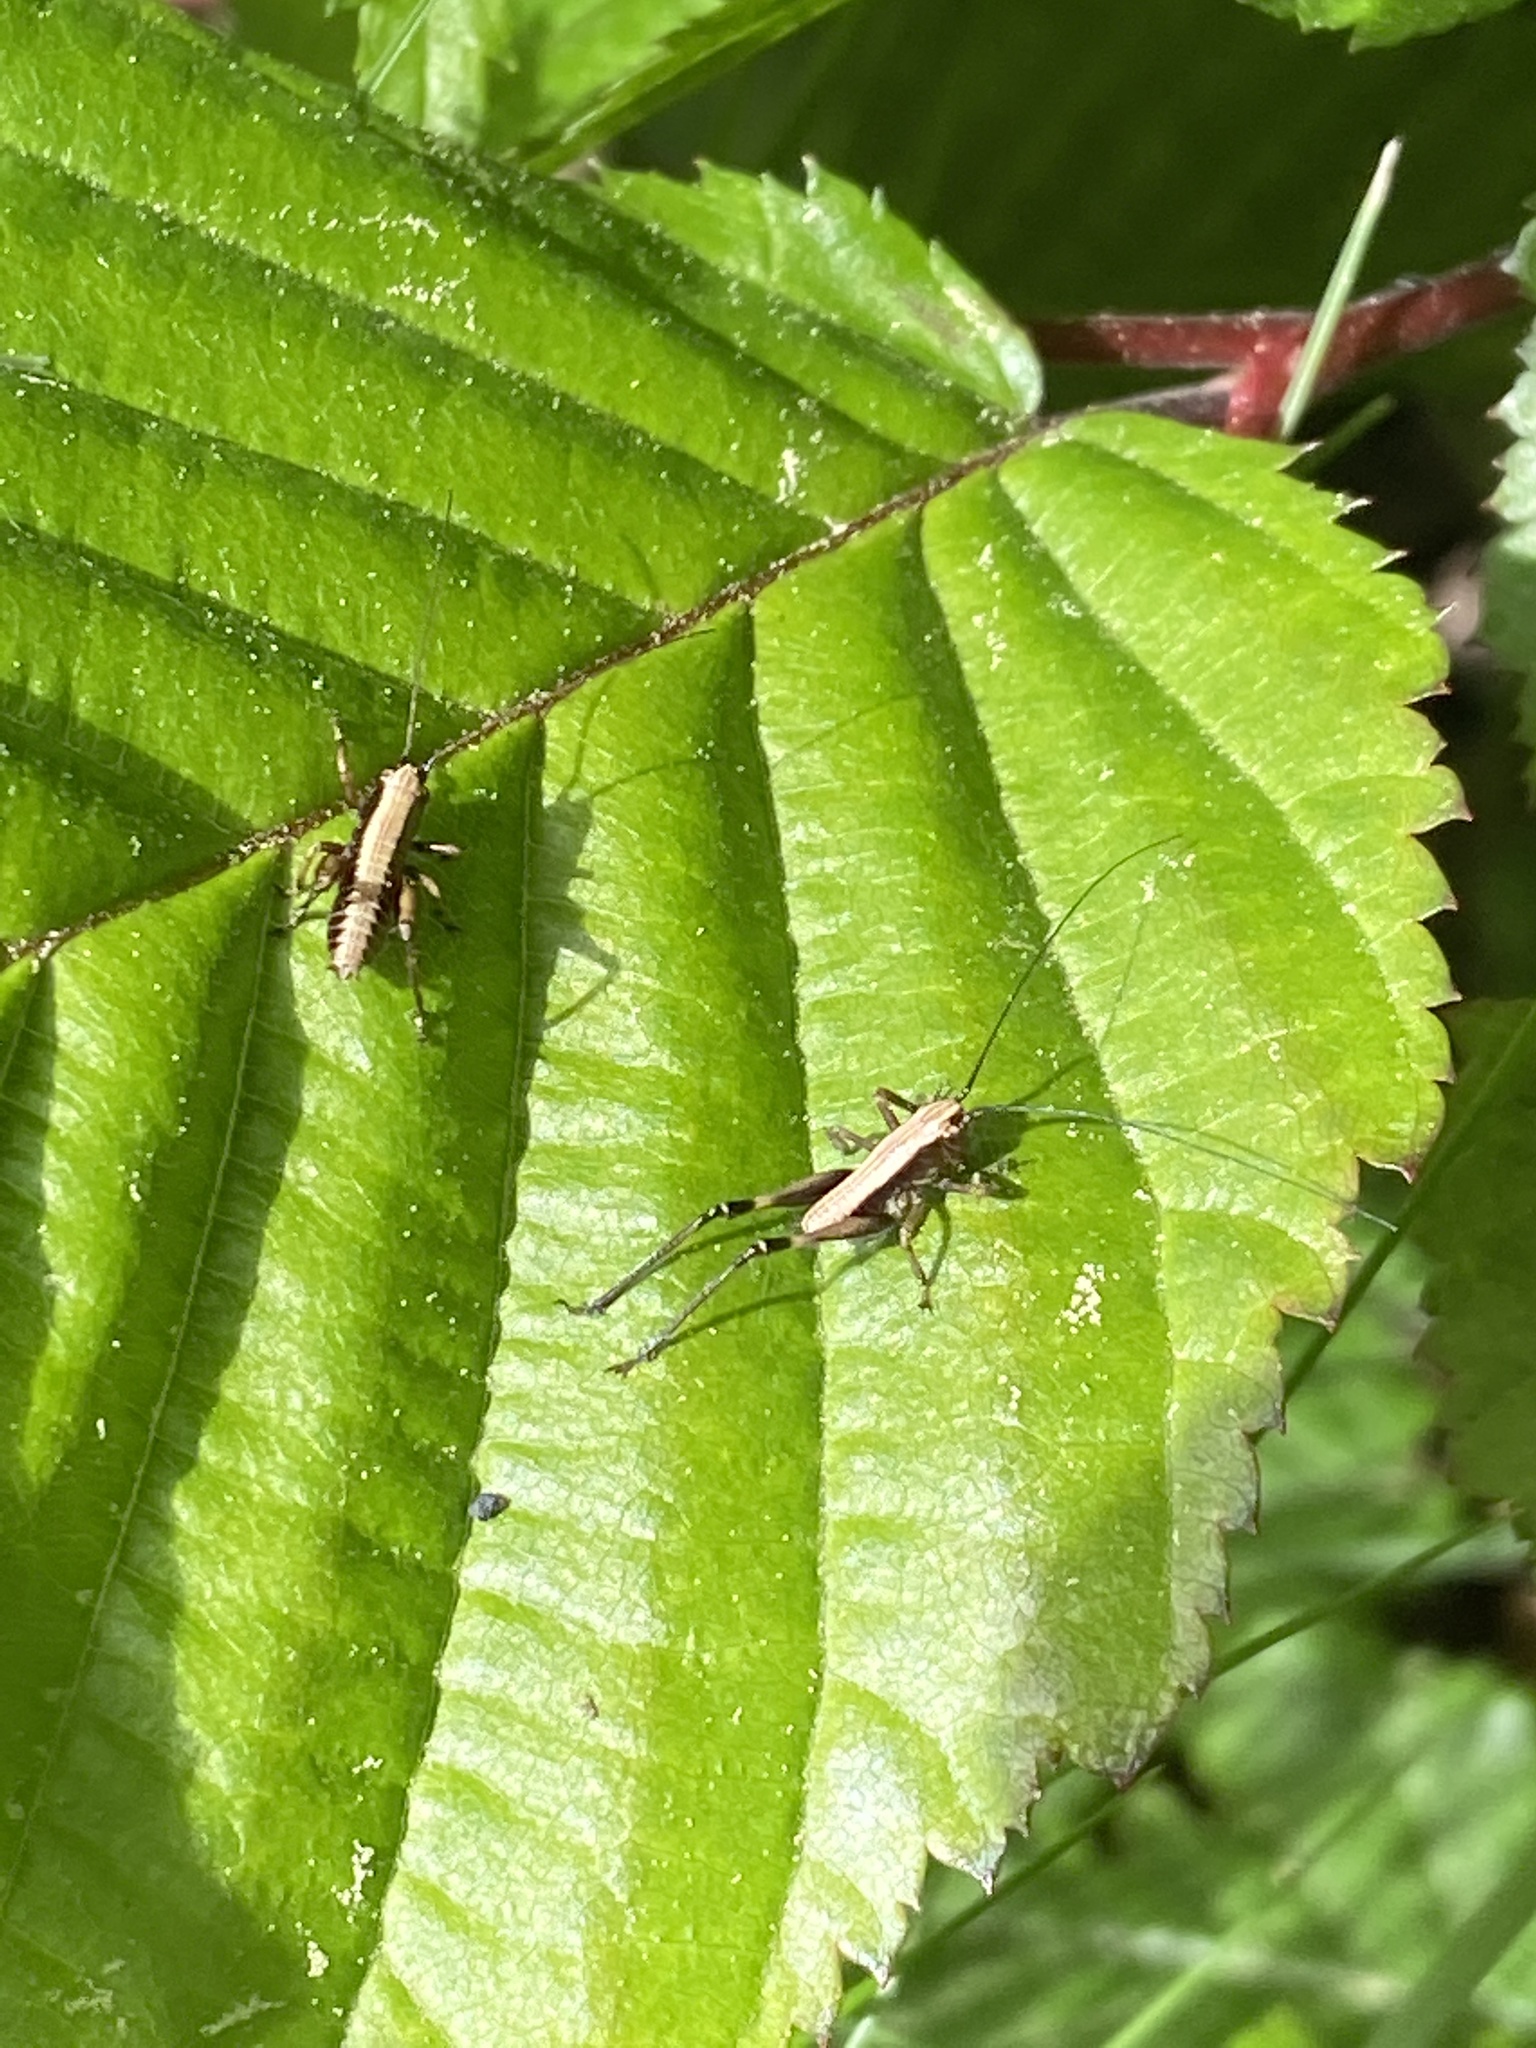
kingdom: Animalia
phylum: Arthropoda
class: Insecta
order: Orthoptera
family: Tettigoniidae
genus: Pholidoptera
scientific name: Pholidoptera griseoaptera
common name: Dark bush-cricket
